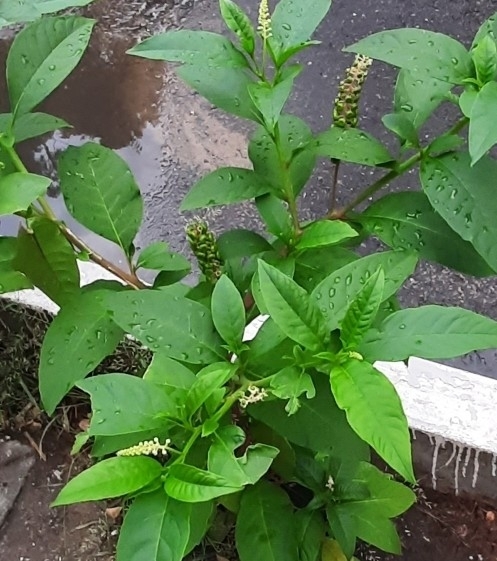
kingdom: Plantae
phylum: Tracheophyta
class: Magnoliopsida
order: Caryophyllales
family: Phytolaccaceae
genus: Phytolacca
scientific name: Phytolacca americana
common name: American pokeweed
